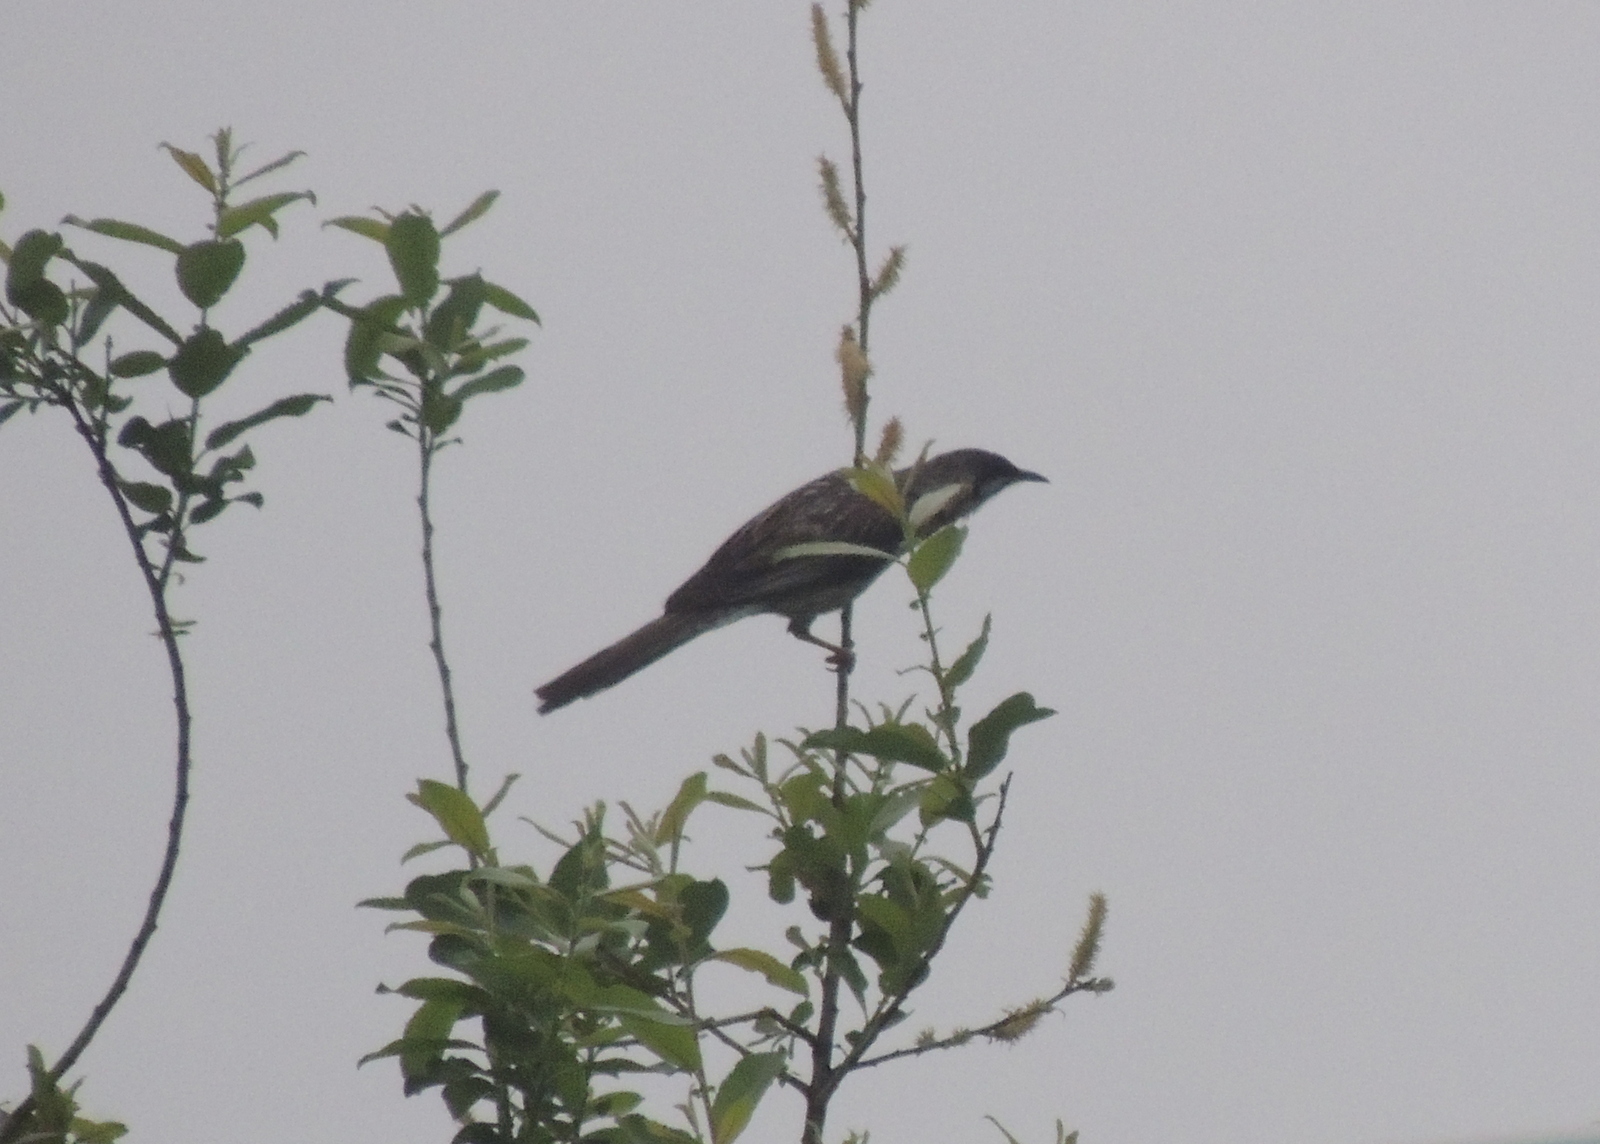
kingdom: Animalia
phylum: Chordata
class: Aves
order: Passeriformes
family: Meliphagidae
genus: Anthochaera
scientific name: Anthochaera carunculata
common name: Red wattlebird
